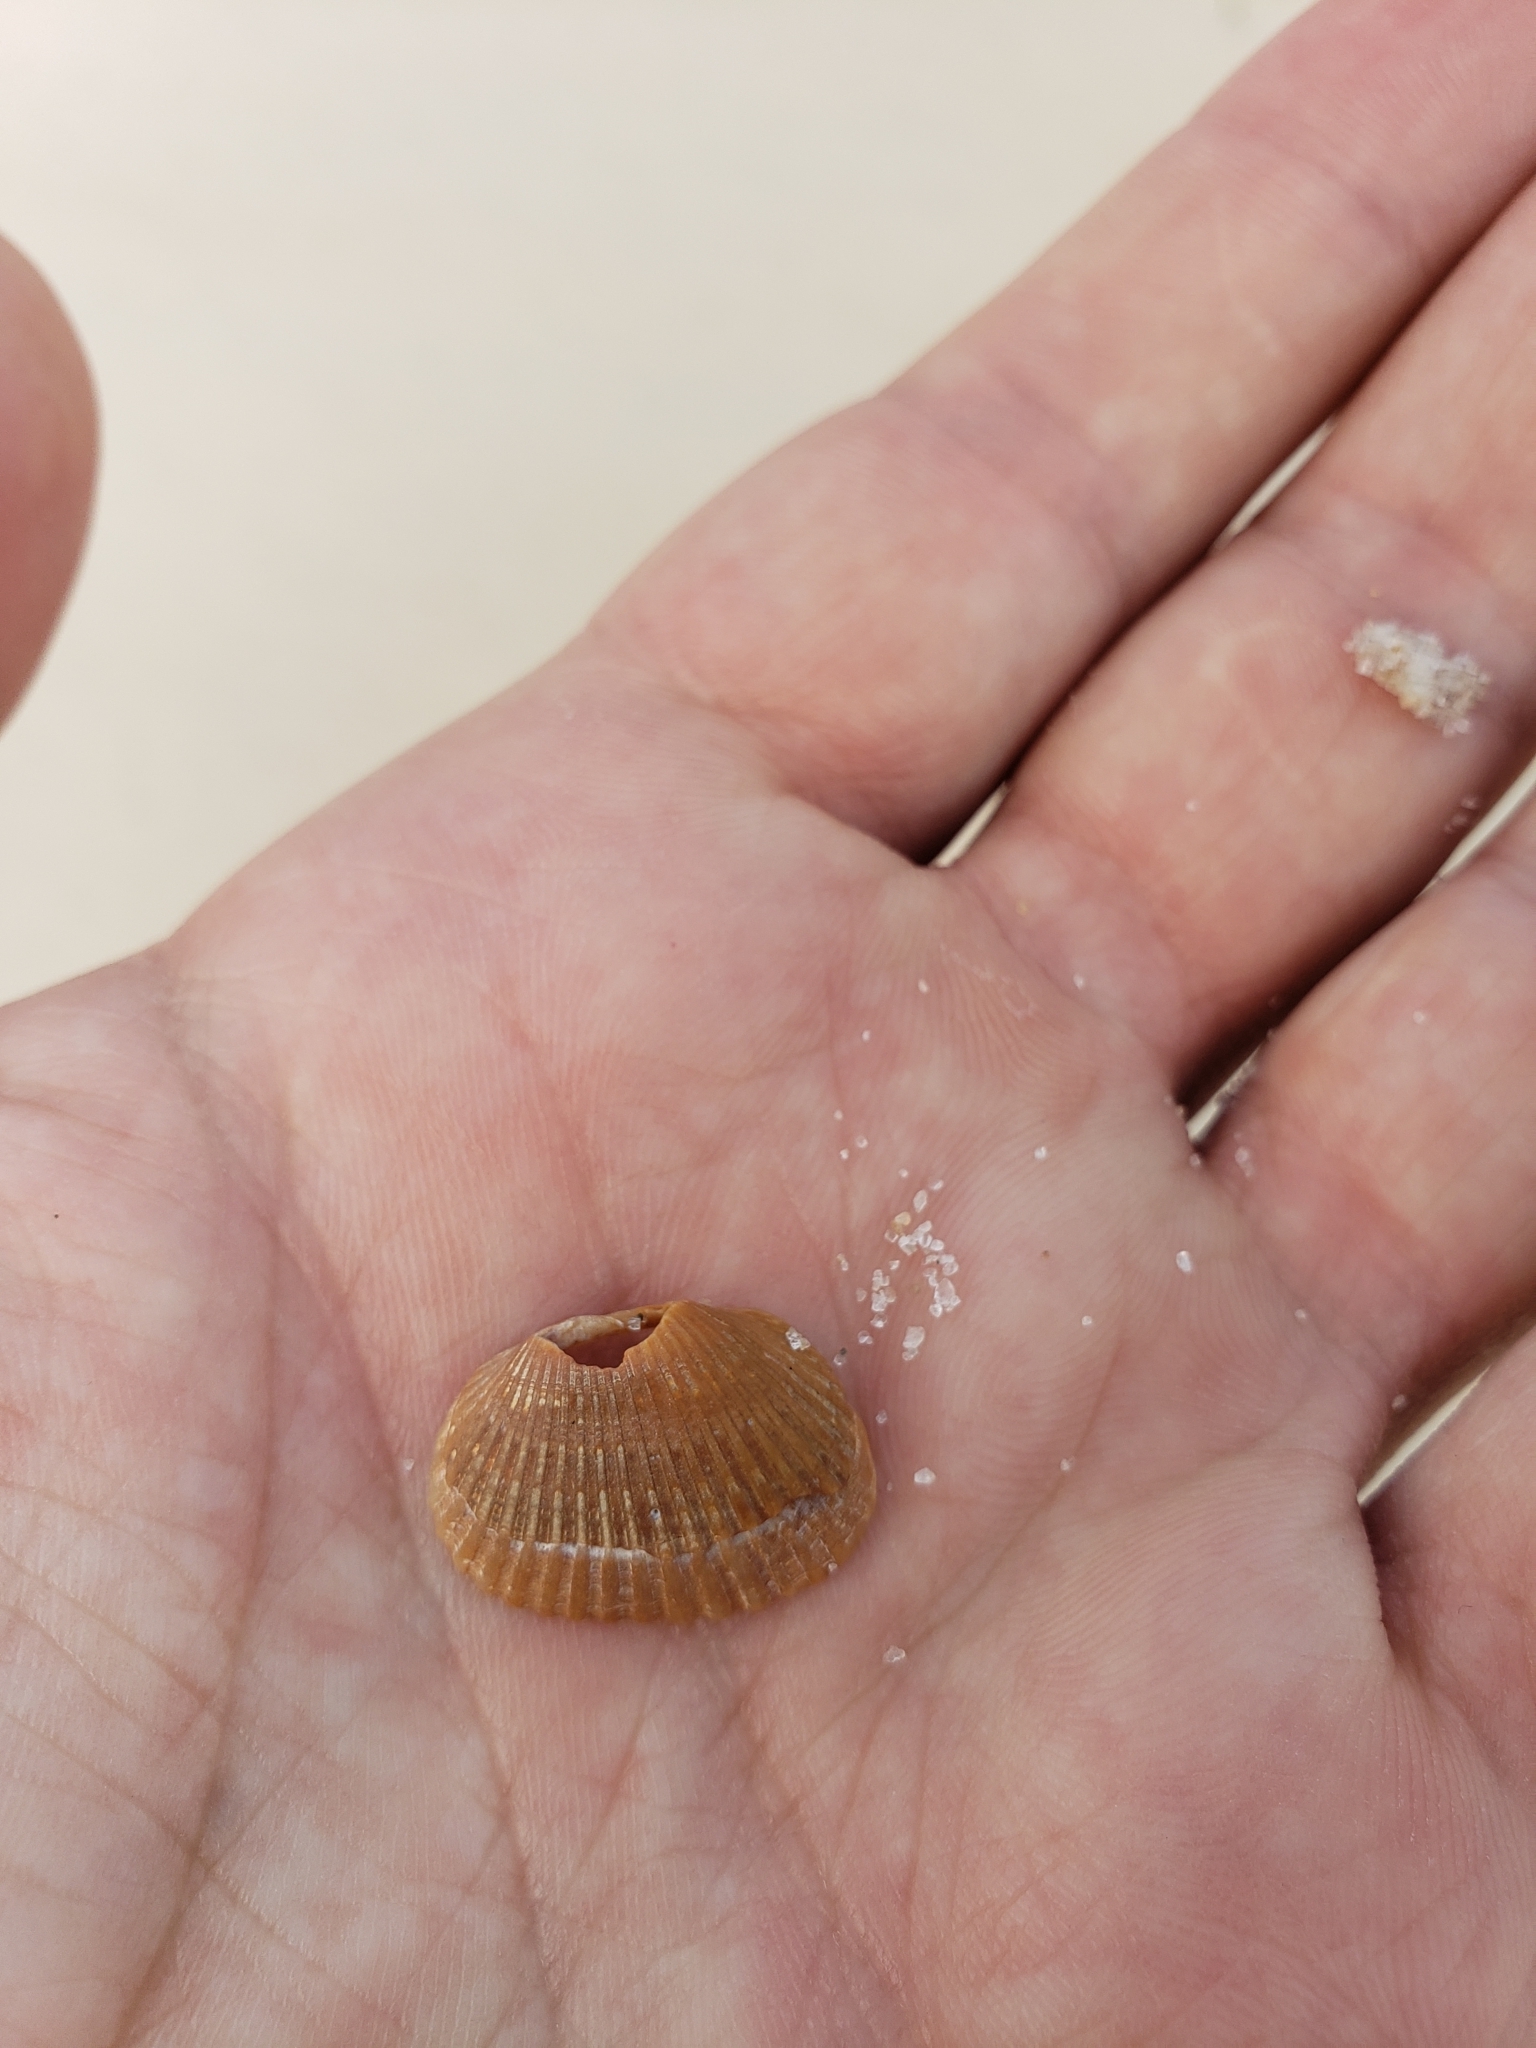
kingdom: Animalia
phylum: Mollusca
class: Bivalvia
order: Arcida
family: Arcidae
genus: Anadara
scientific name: Anadara transversa
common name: Transverse ark
